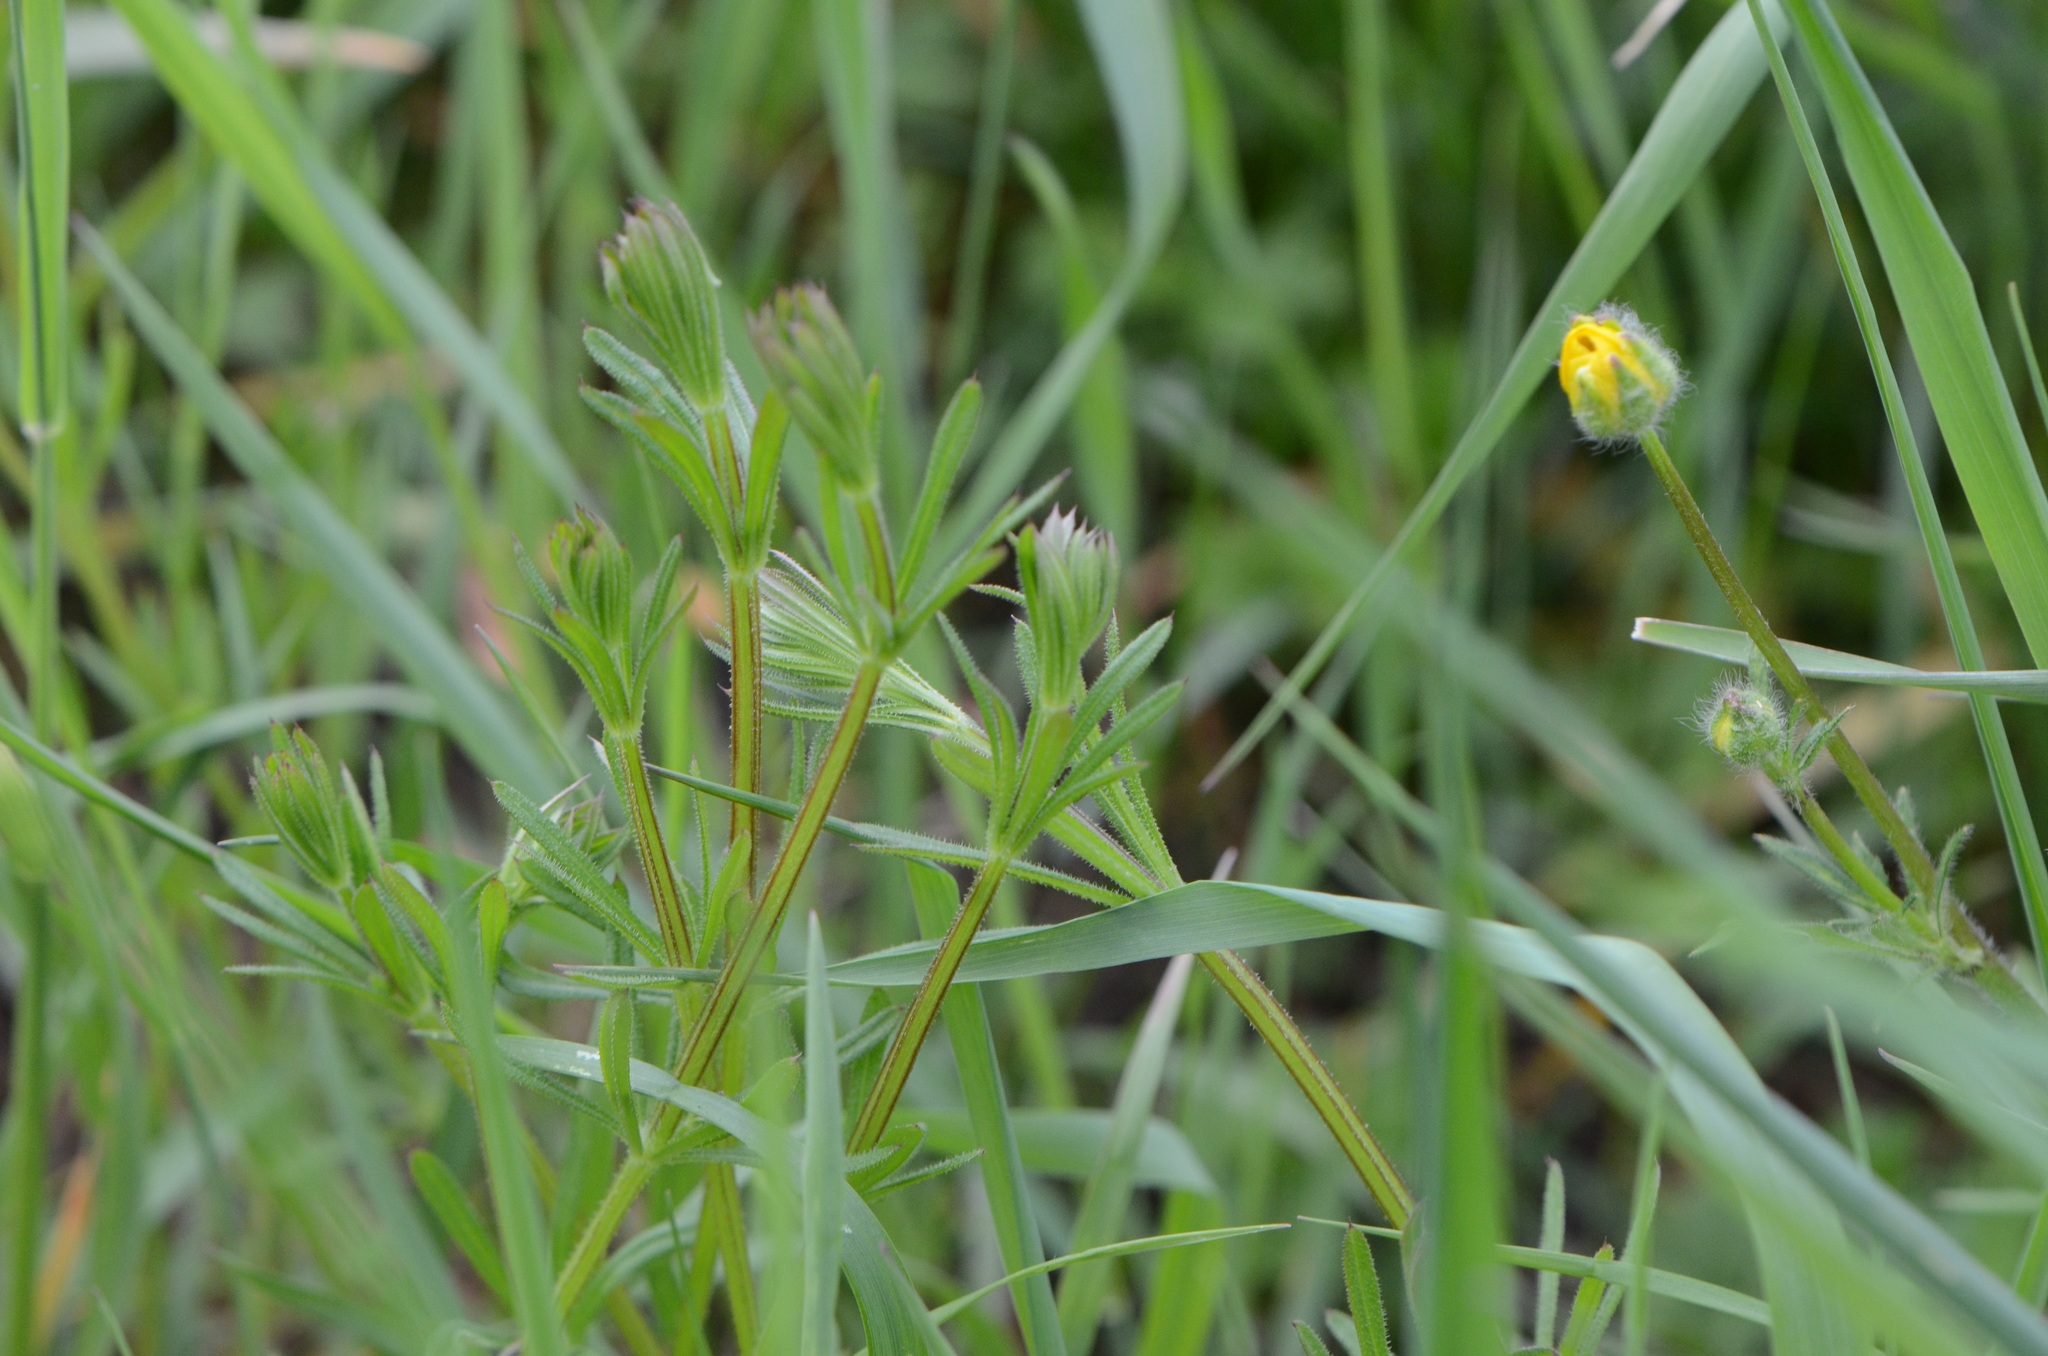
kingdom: Plantae
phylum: Tracheophyta
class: Magnoliopsida
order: Gentianales
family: Rubiaceae
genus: Galium
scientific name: Galium aparine
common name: Cleavers
